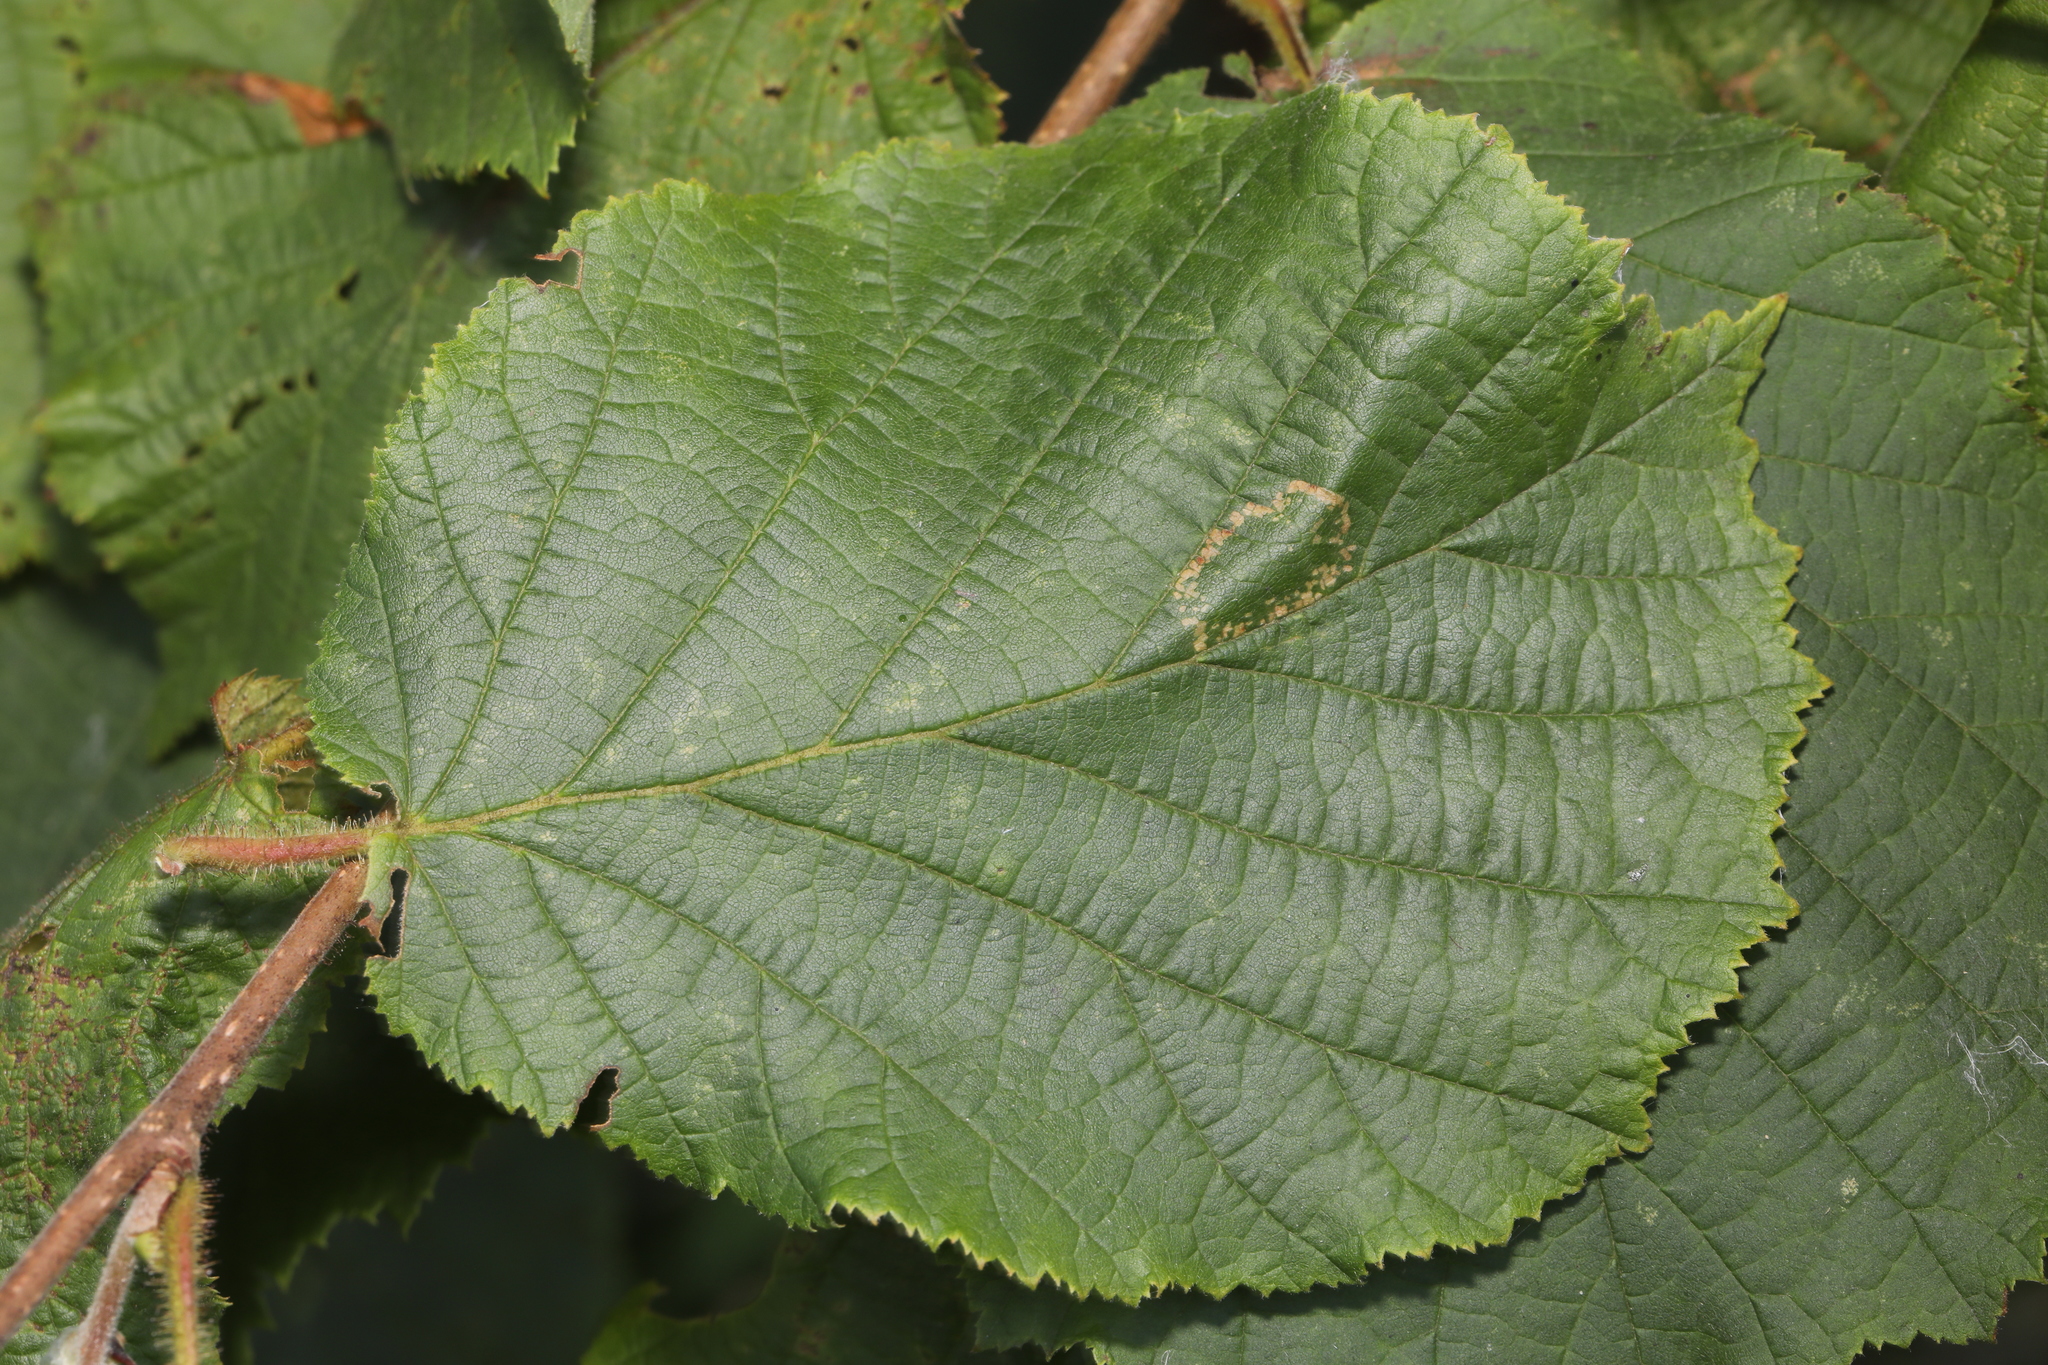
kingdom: Animalia
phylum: Arthropoda
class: Insecta
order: Lepidoptera
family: Gracillariidae
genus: Phyllonorycter
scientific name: Phyllonorycter nicellii
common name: Red hazel midget
